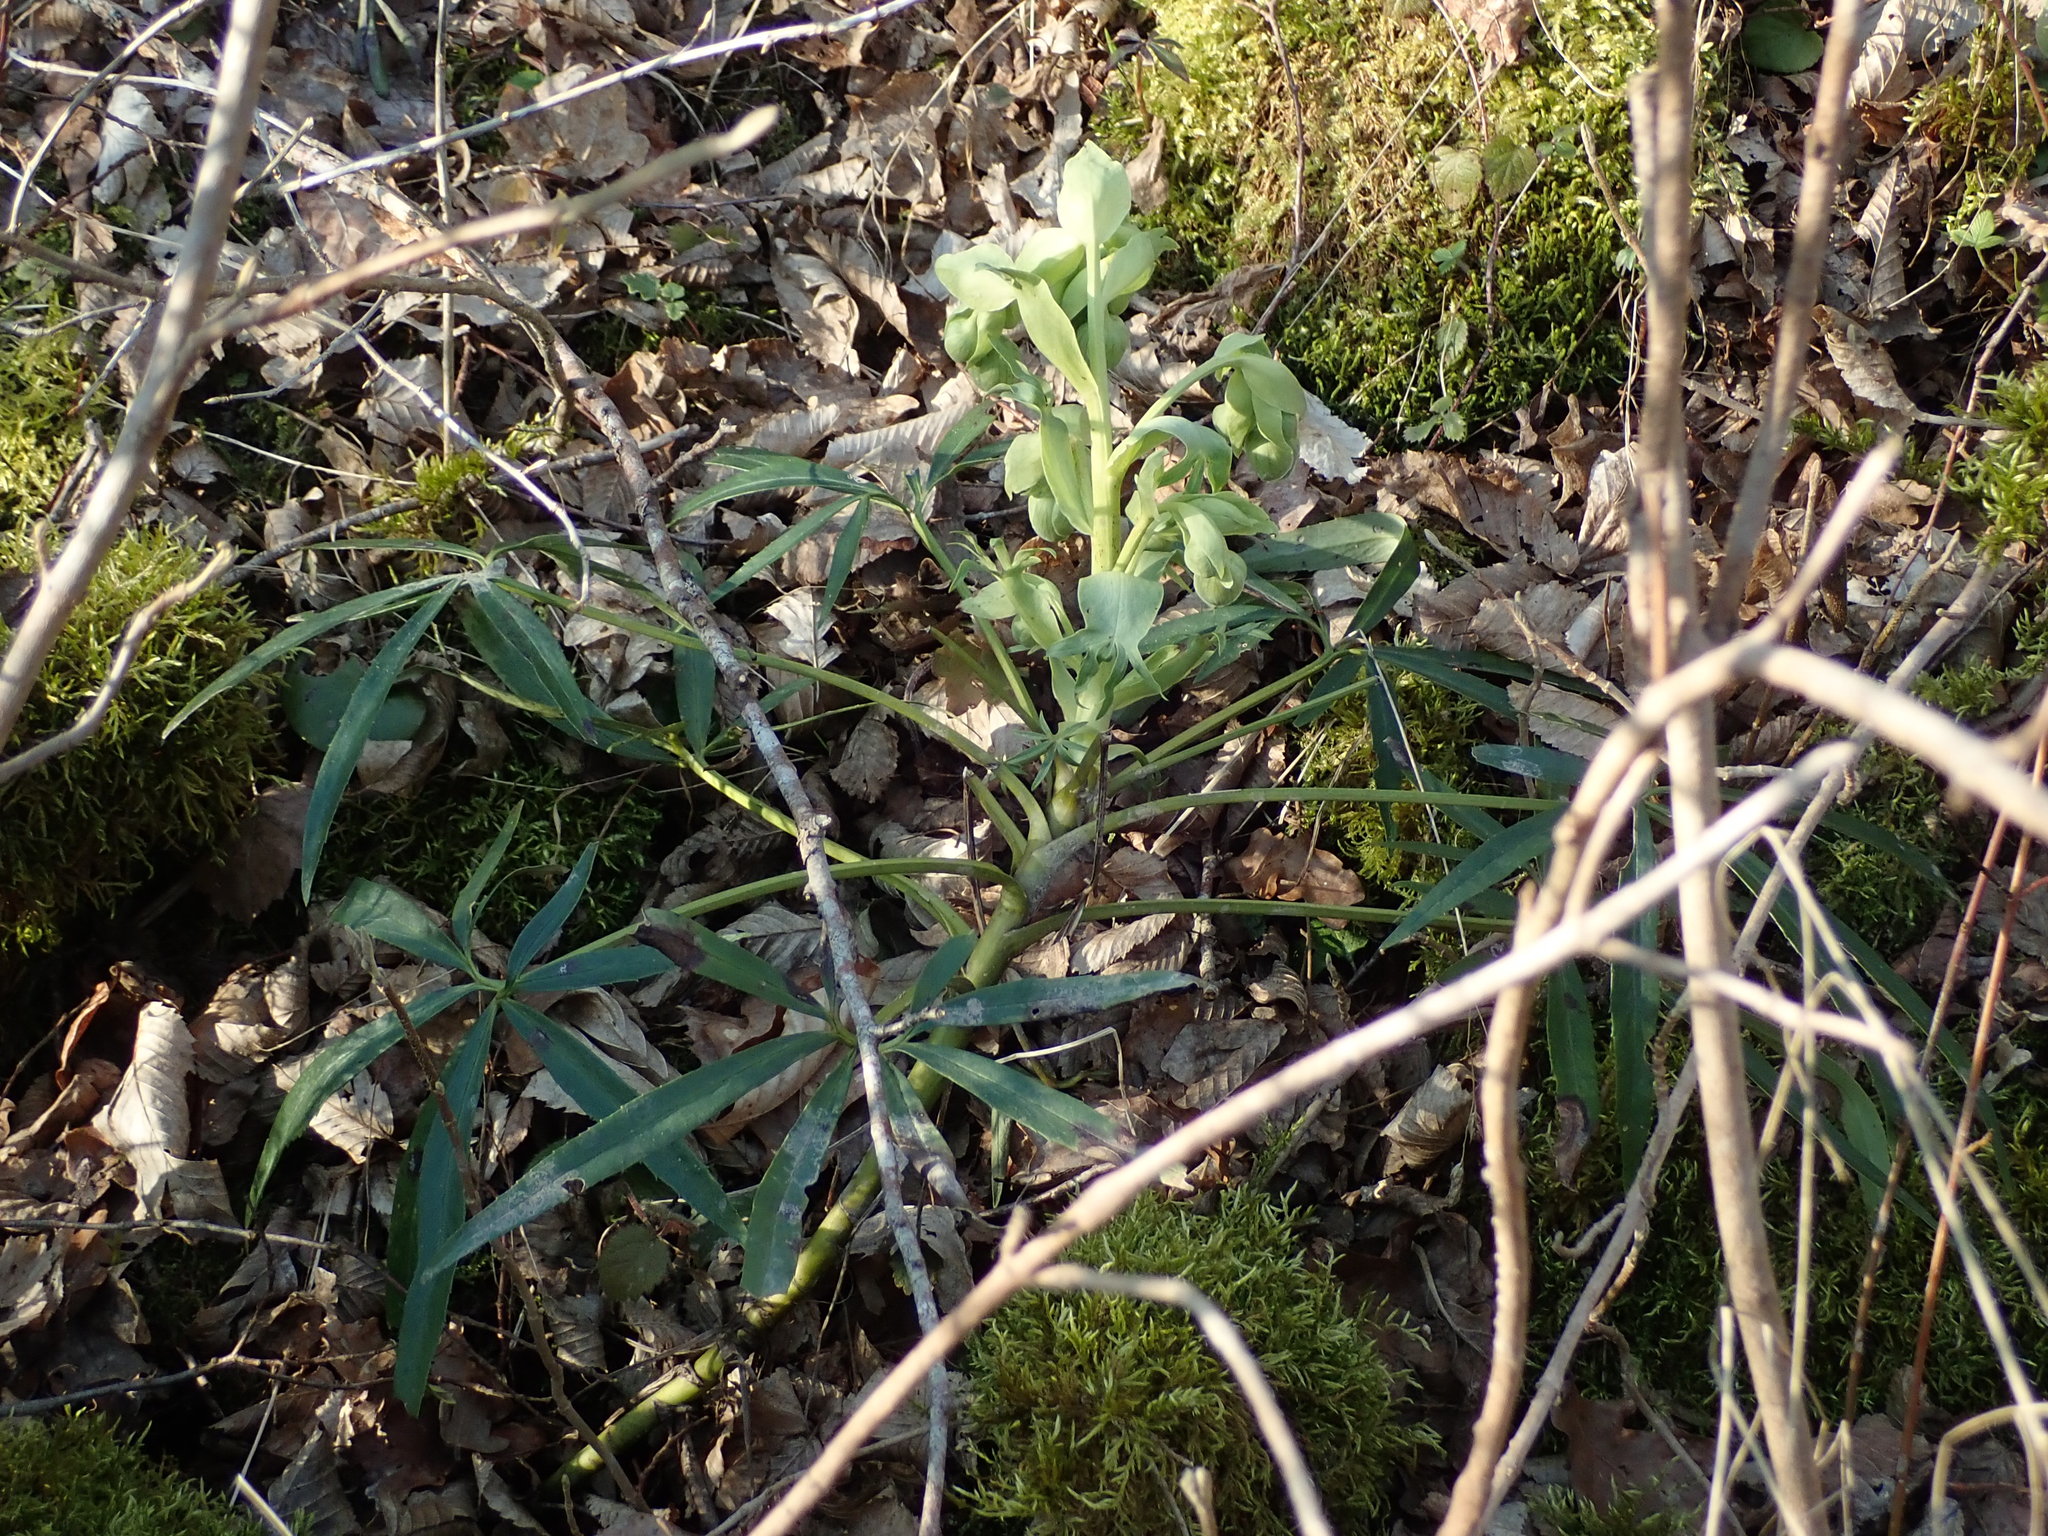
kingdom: Plantae
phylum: Tracheophyta
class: Magnoliopsida
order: Ranunculales
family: Ranunculaceae
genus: Helleborus
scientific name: Helleborus foetidus
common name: Stinking hellebore
